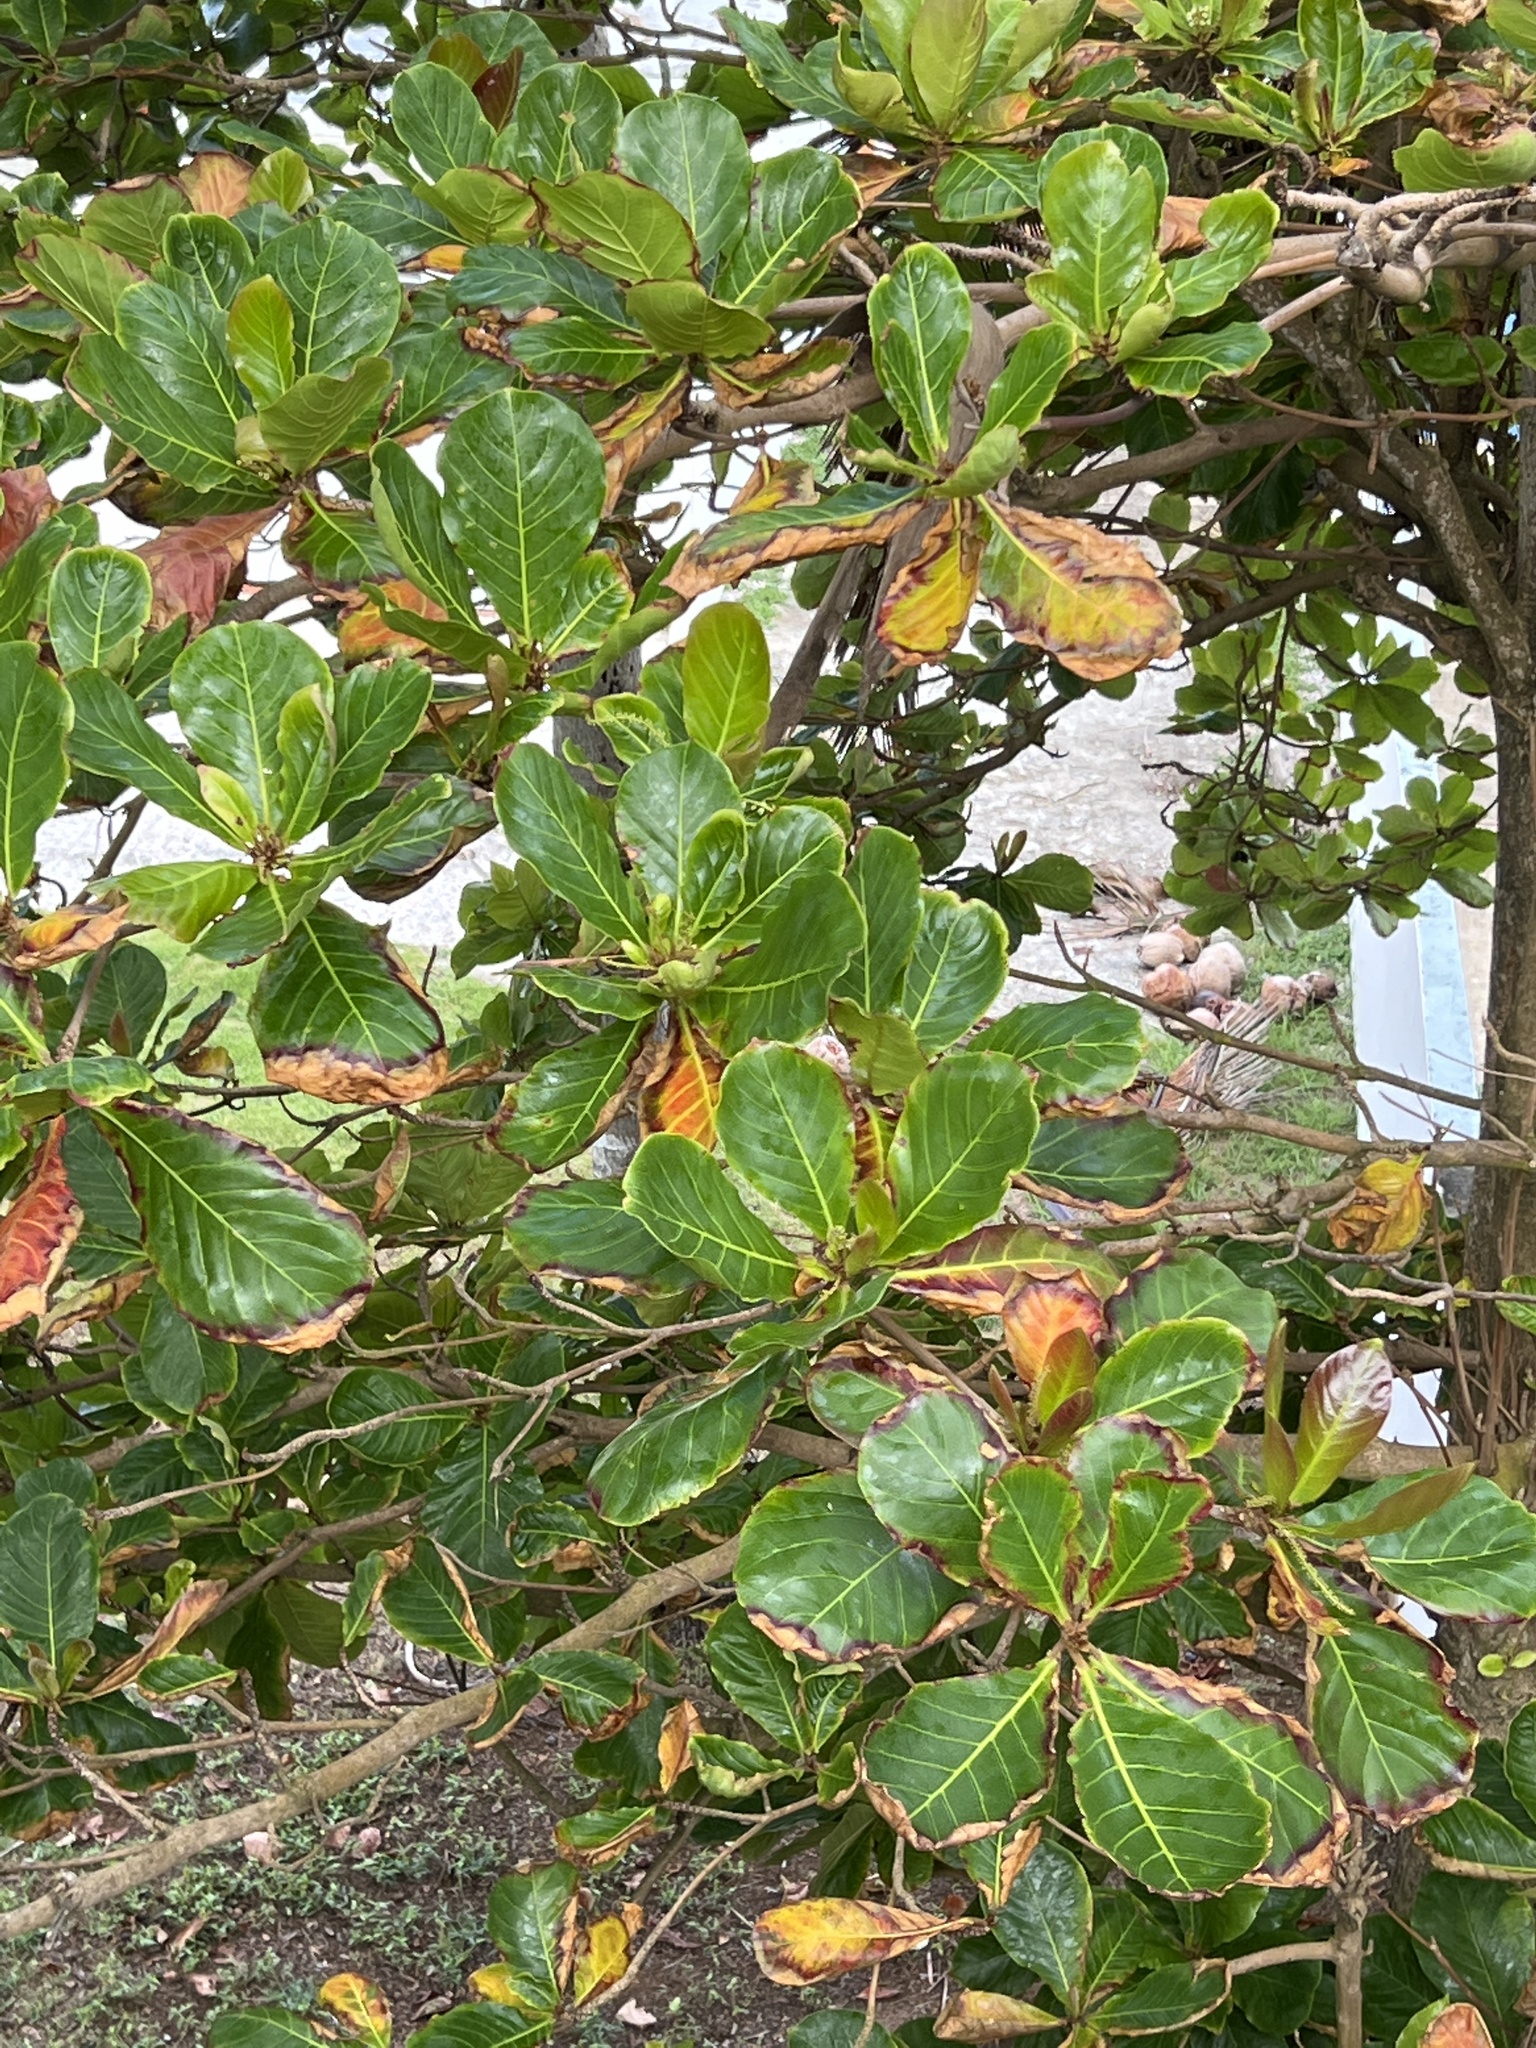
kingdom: Plantae
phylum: Tracheophyta
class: Magnoliopsida
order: Myrtales
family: Combretaceae
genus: Terminalia
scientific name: Terminalia catappa
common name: Tropical almond
